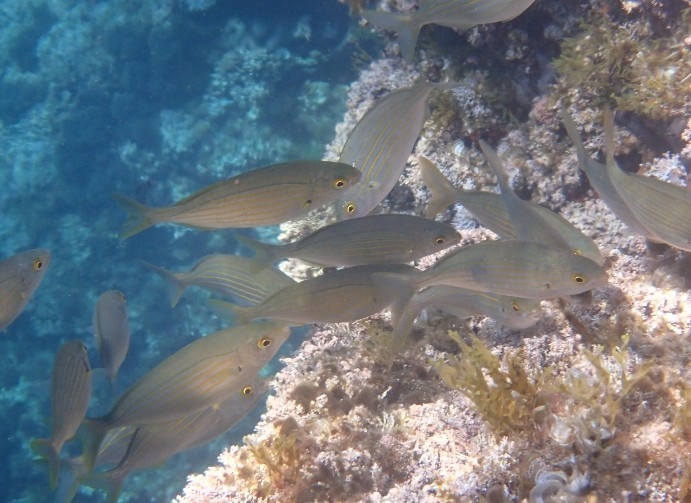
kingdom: Animalia
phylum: Chordata
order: Perciformes
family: Sparidae
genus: Sarpa
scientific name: Sarpa salpa
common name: Salema
